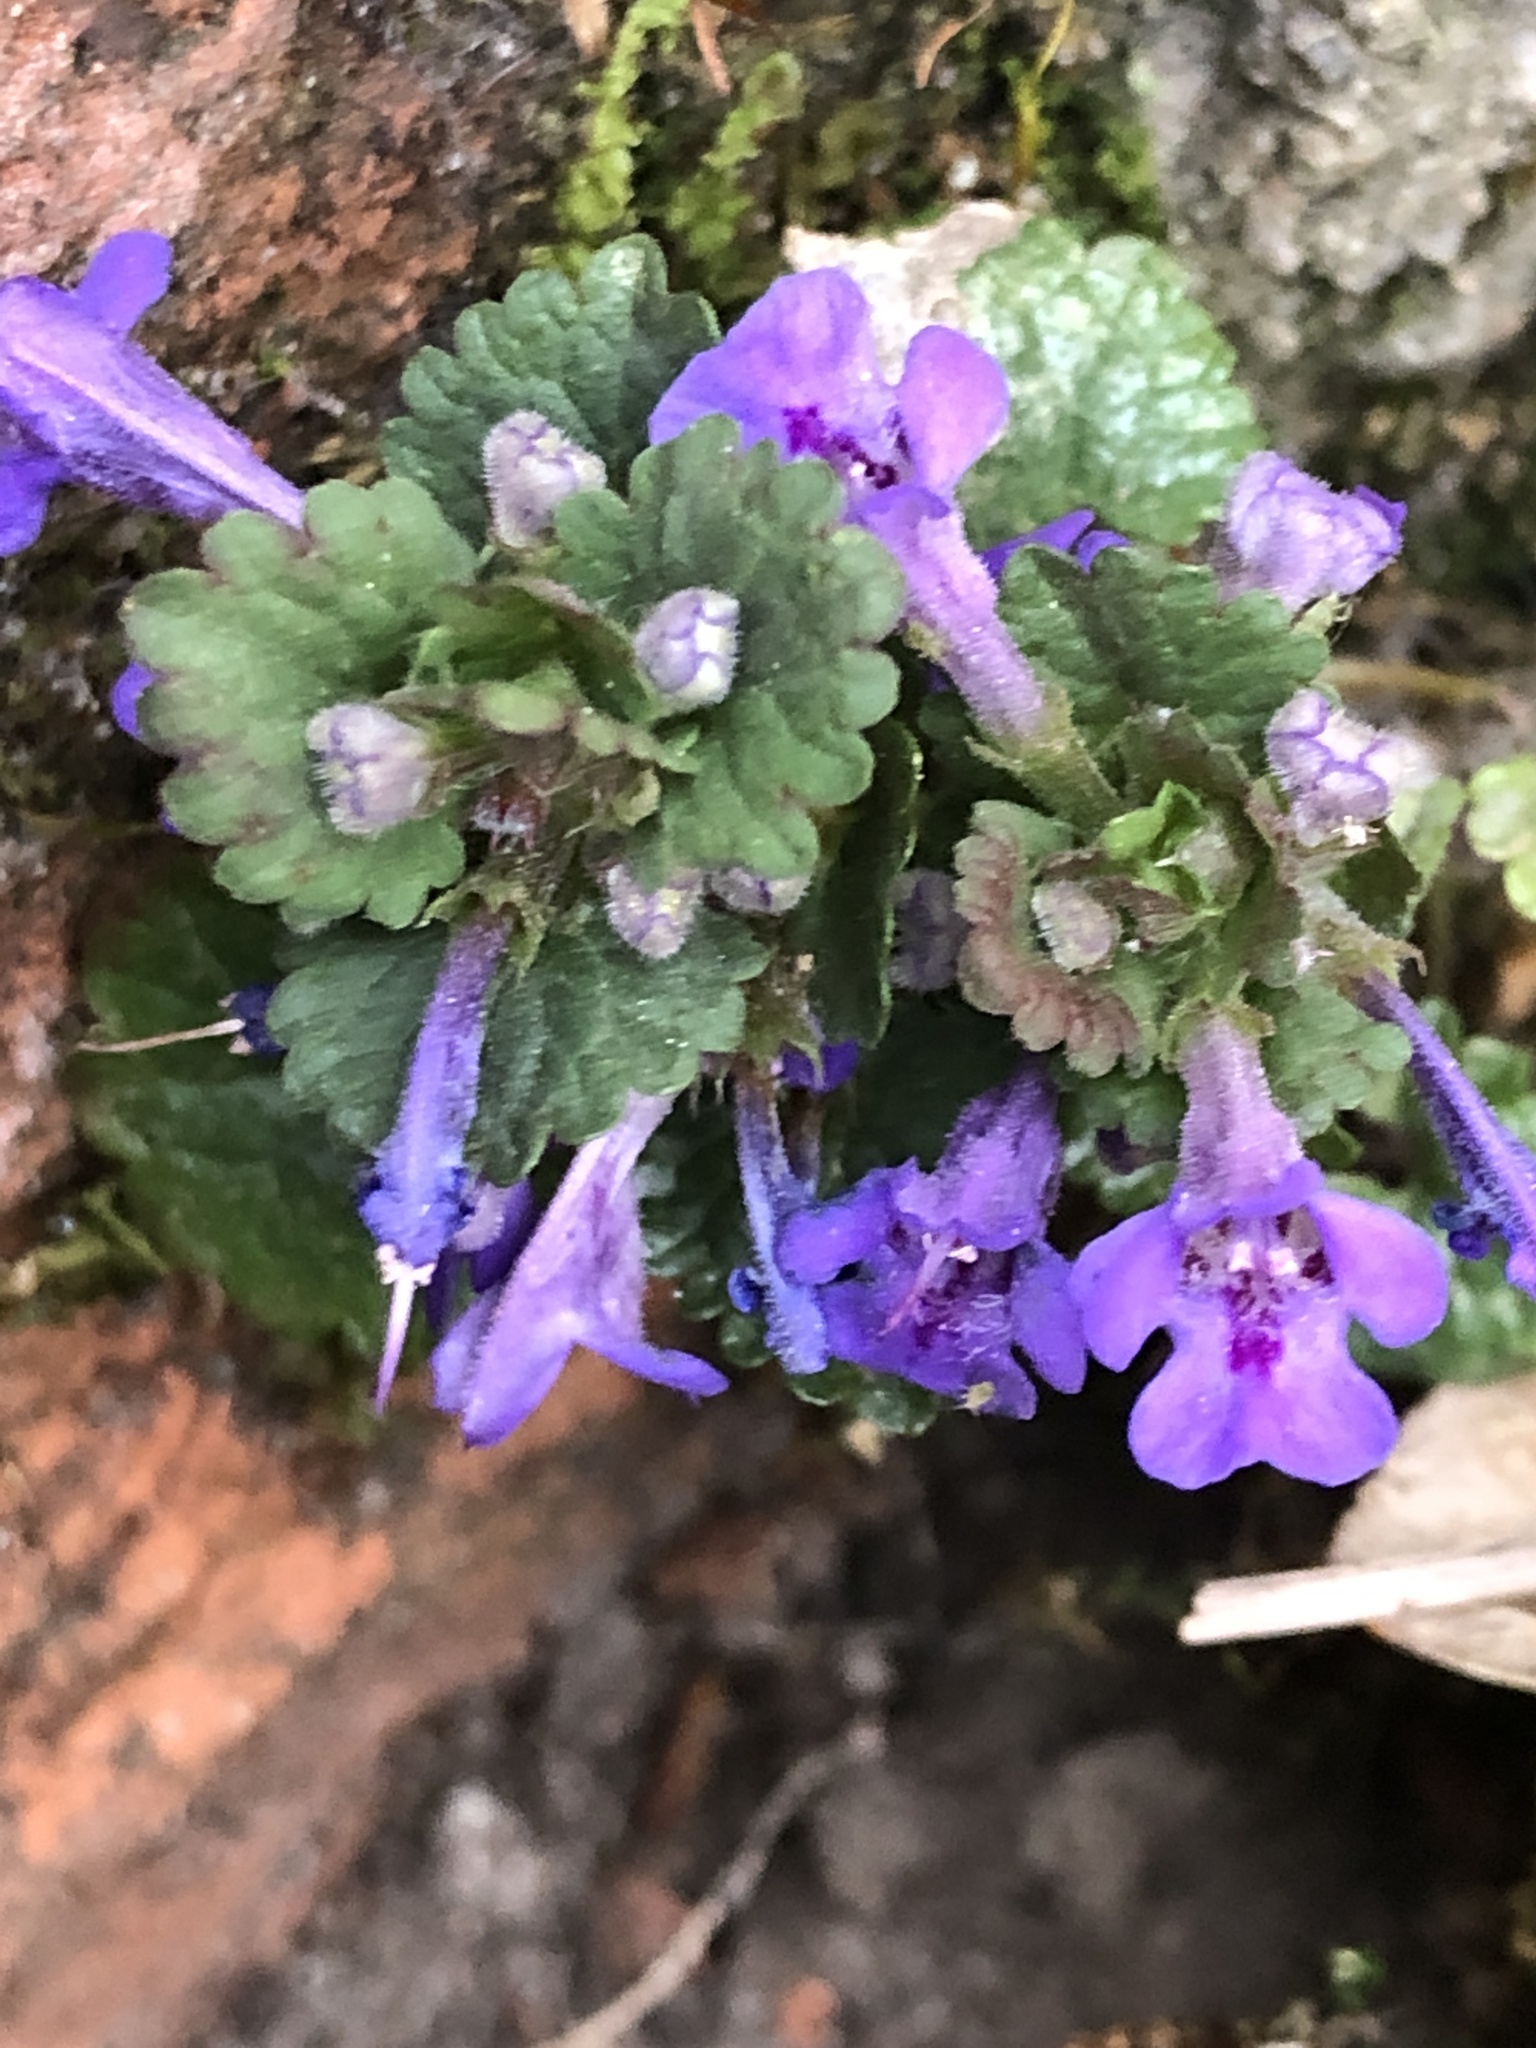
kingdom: Plantae
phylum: Tracheophyta
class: Magnoliopsida
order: Lamiales
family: Lamiaceae
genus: Glechoma
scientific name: Glechoma hederacea
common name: Ground ivy
